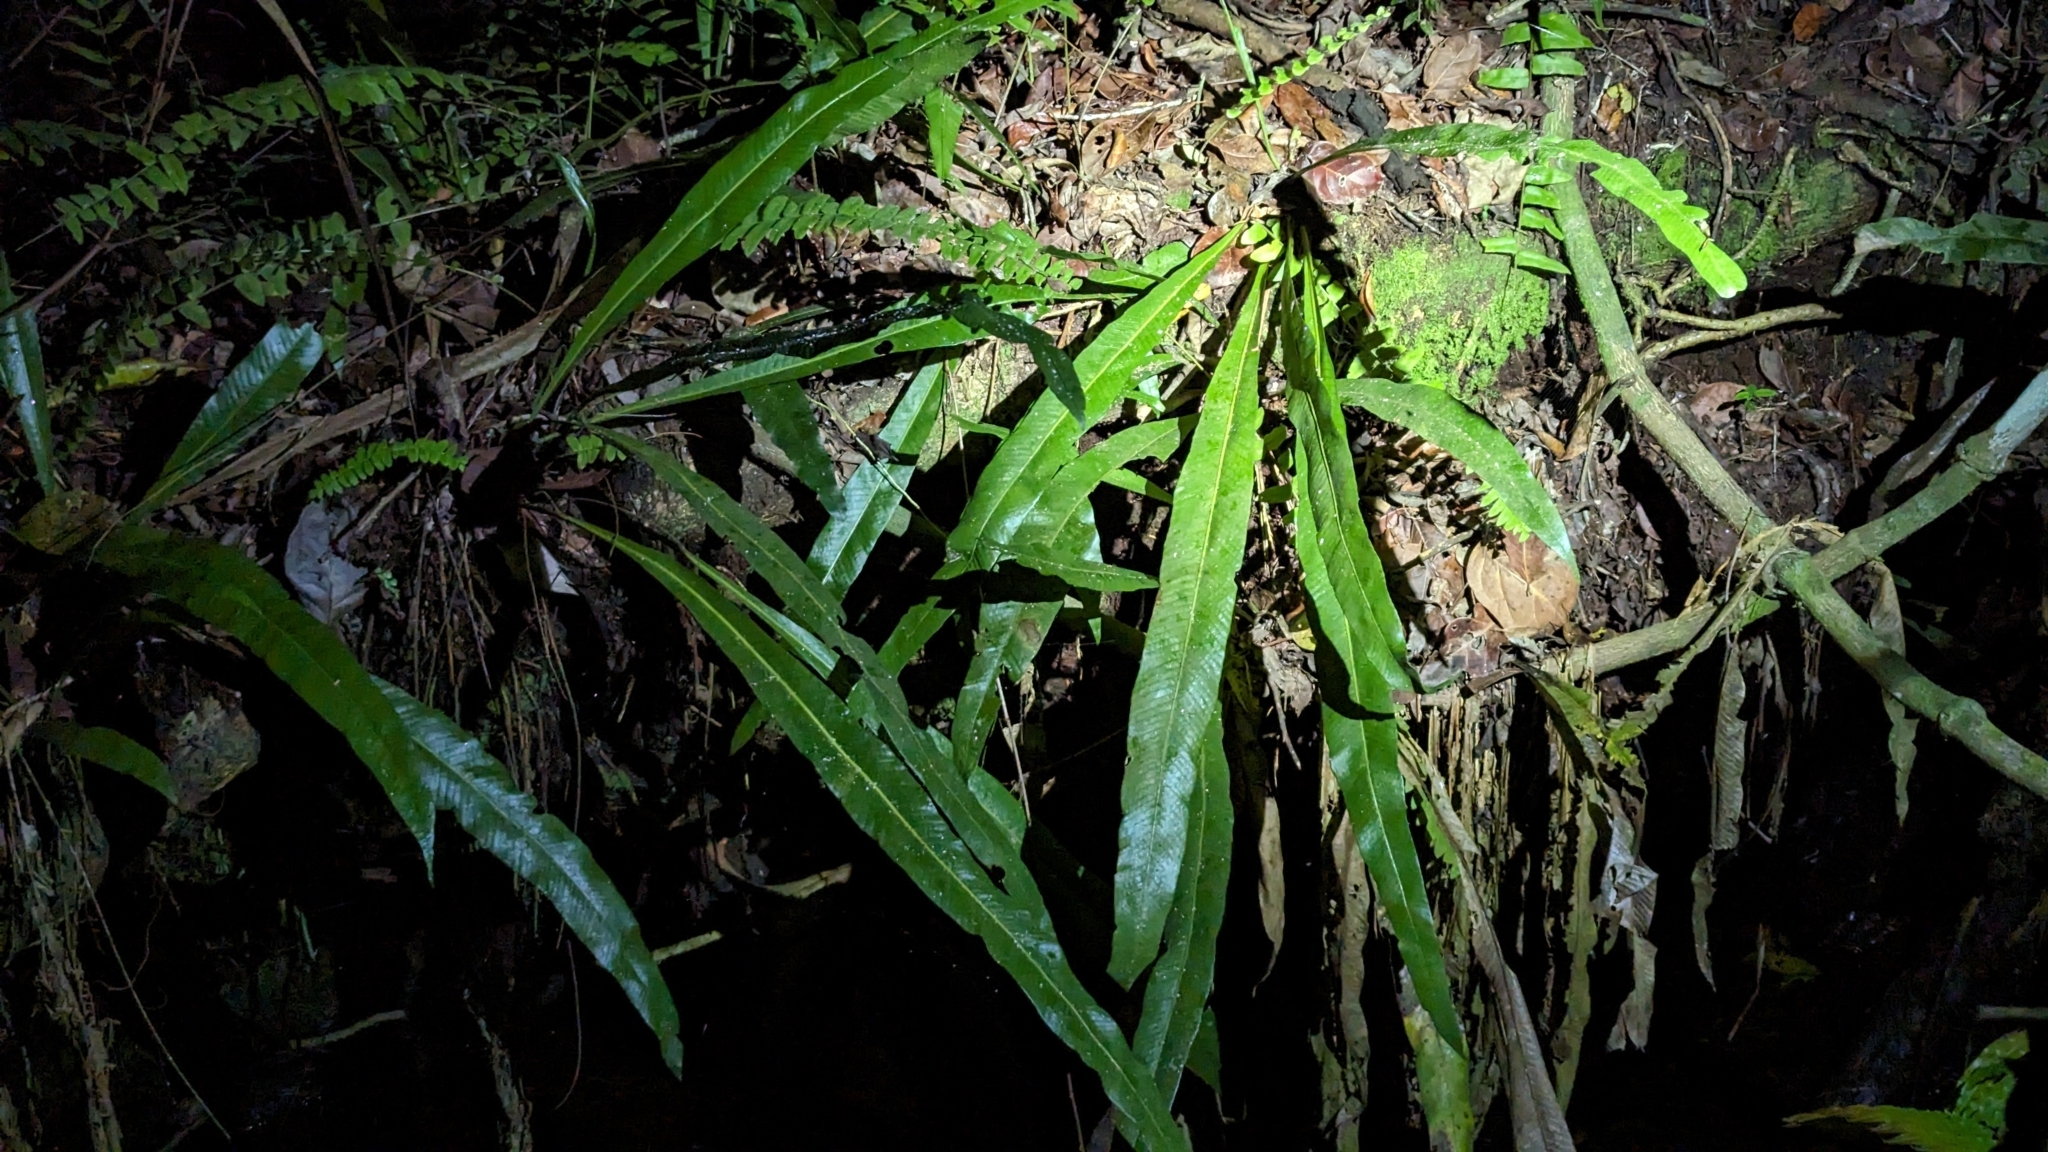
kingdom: Plantae
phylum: Tracheophyta
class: Polypodiopsida
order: Polypodiales
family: Polypodiaceae
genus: Campyloneurum
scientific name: Campyloneurum phyllitidis
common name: Cow-tongue fern
